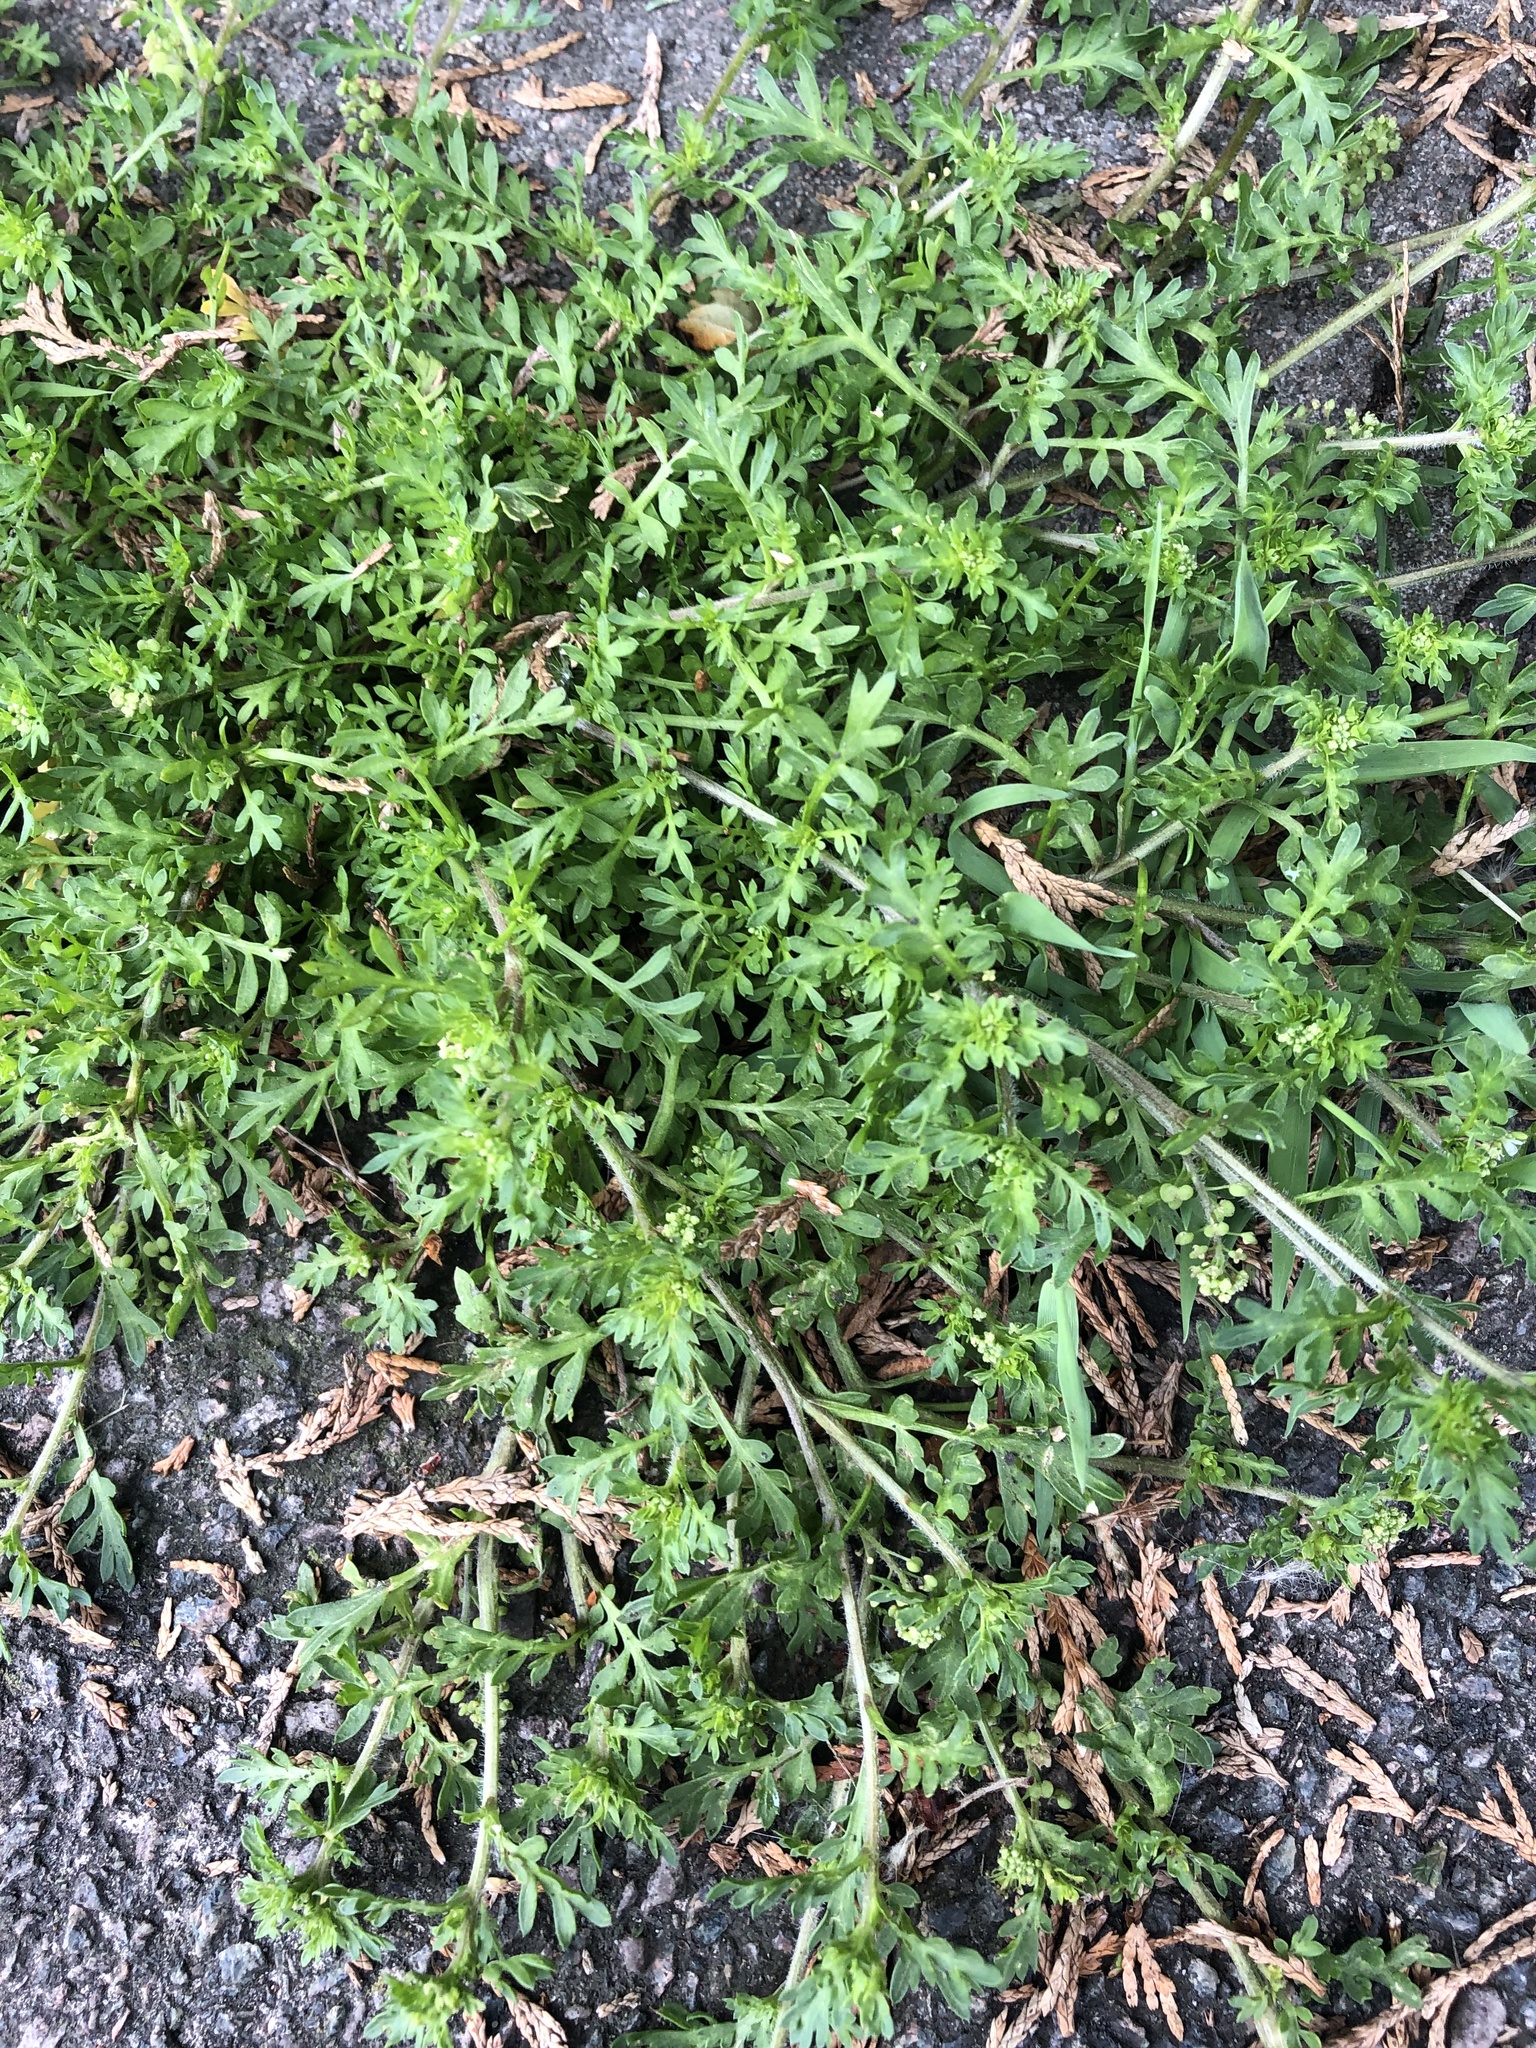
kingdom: Plantae
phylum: Tracheophyta
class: Magnoliopsida
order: Brassicales
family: Brassicaceae
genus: Lepidium
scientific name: Lepidium didymum
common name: Lesser swinecress
